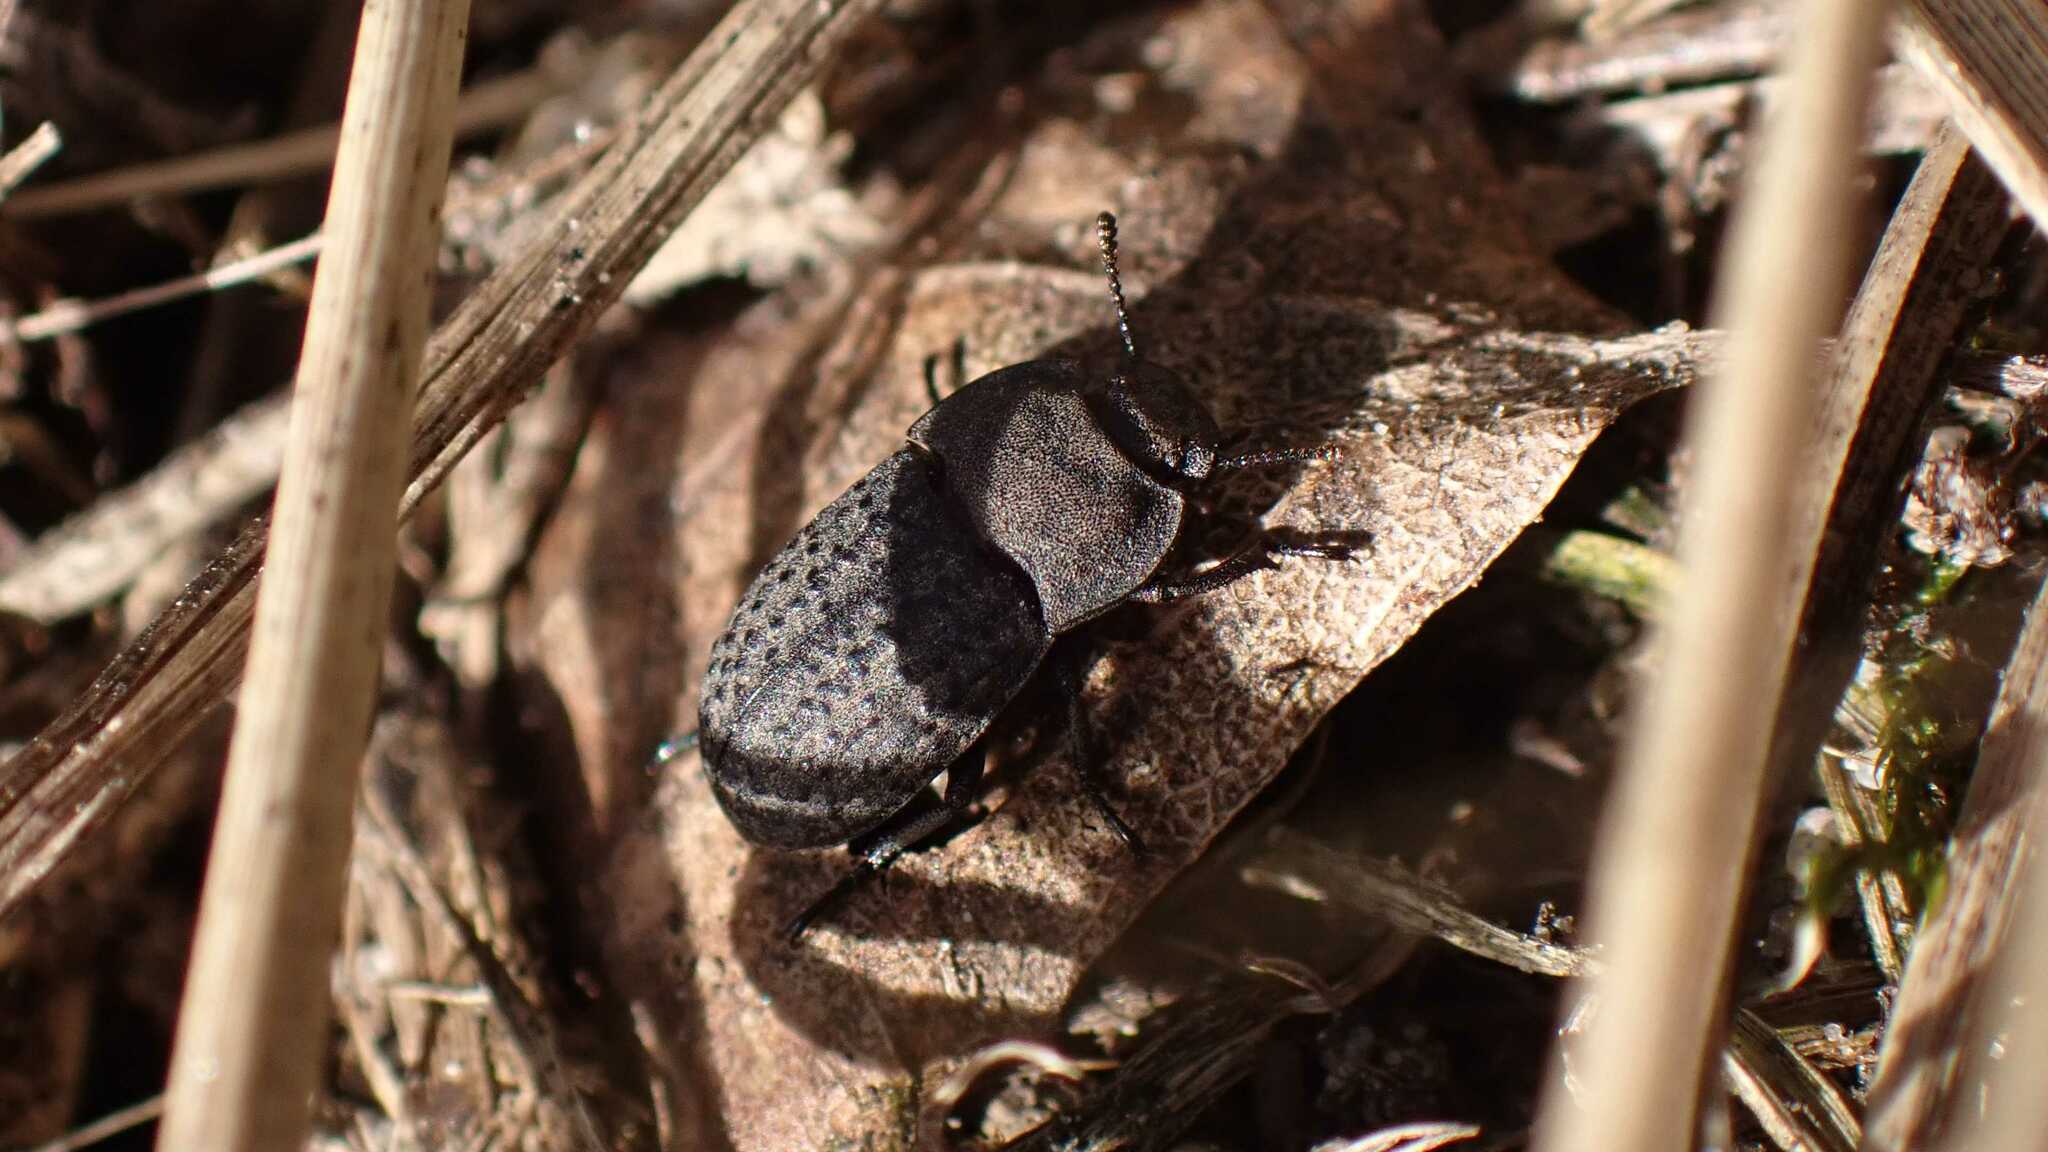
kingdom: Animalia
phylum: Arthropoda
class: Insecta
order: Coleoptera
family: Tenebrionidae
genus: Opatrum
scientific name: Opatrum sabulosum
